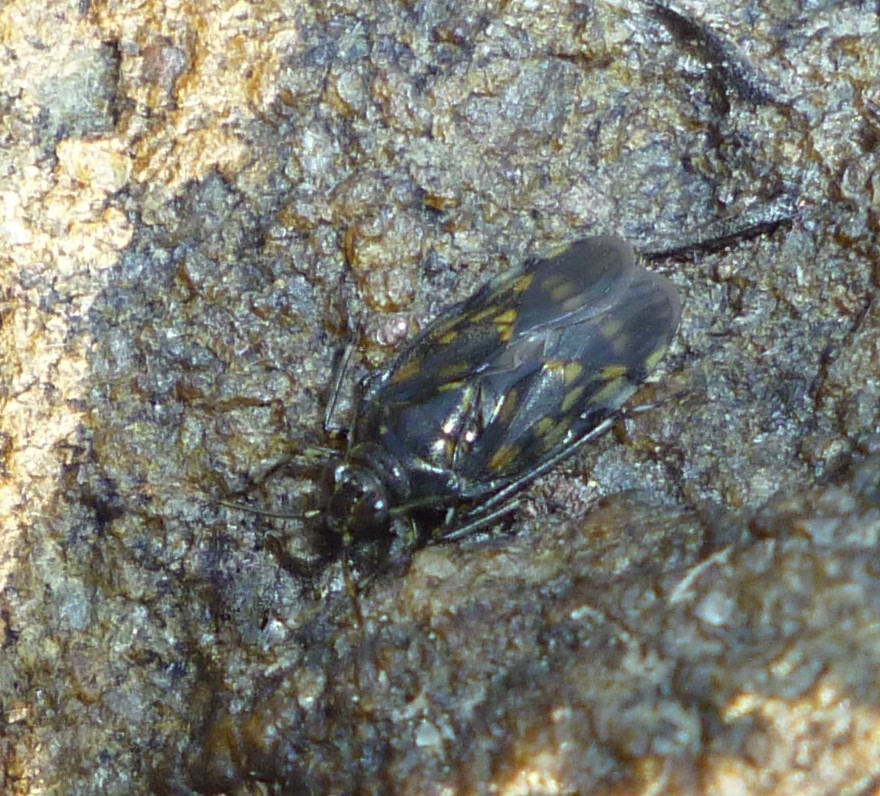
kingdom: Animalia
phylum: Arthropoda
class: Insecta
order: Hemiptera
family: Saldidae
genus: Pentacora
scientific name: Pentacora ligata
